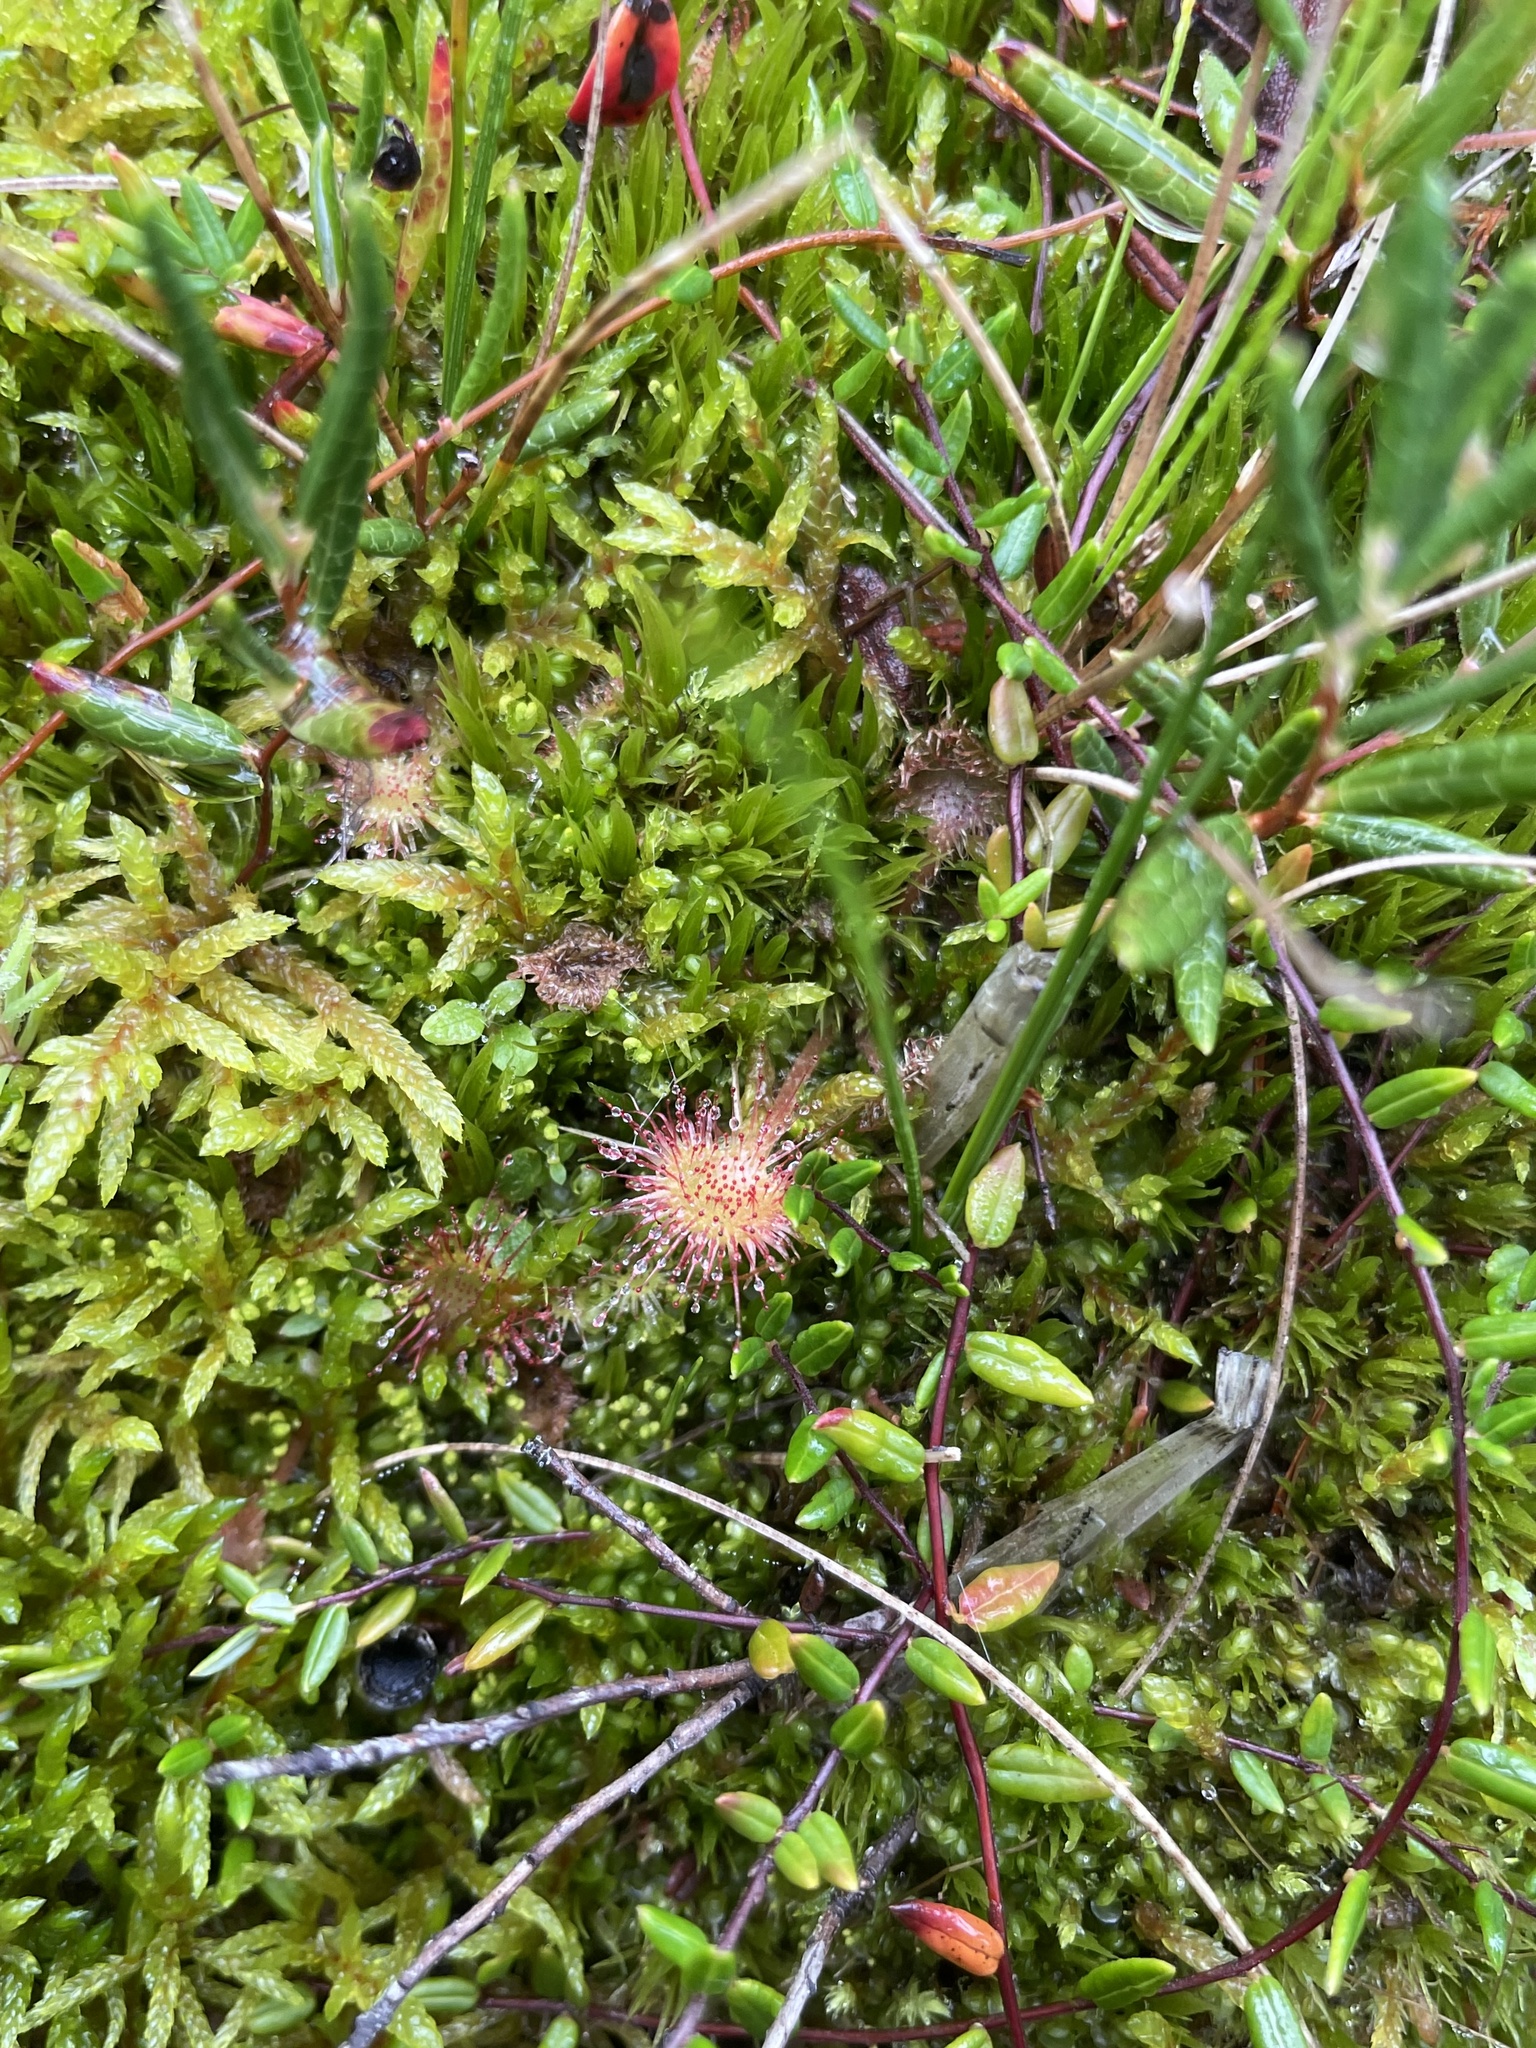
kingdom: Plantae
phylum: Tracheophyta
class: Magnoliopsida
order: Ericales
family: Ericaceae
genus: Vaccinium
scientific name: Vaccinium oxycoccos
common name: Cranberry
